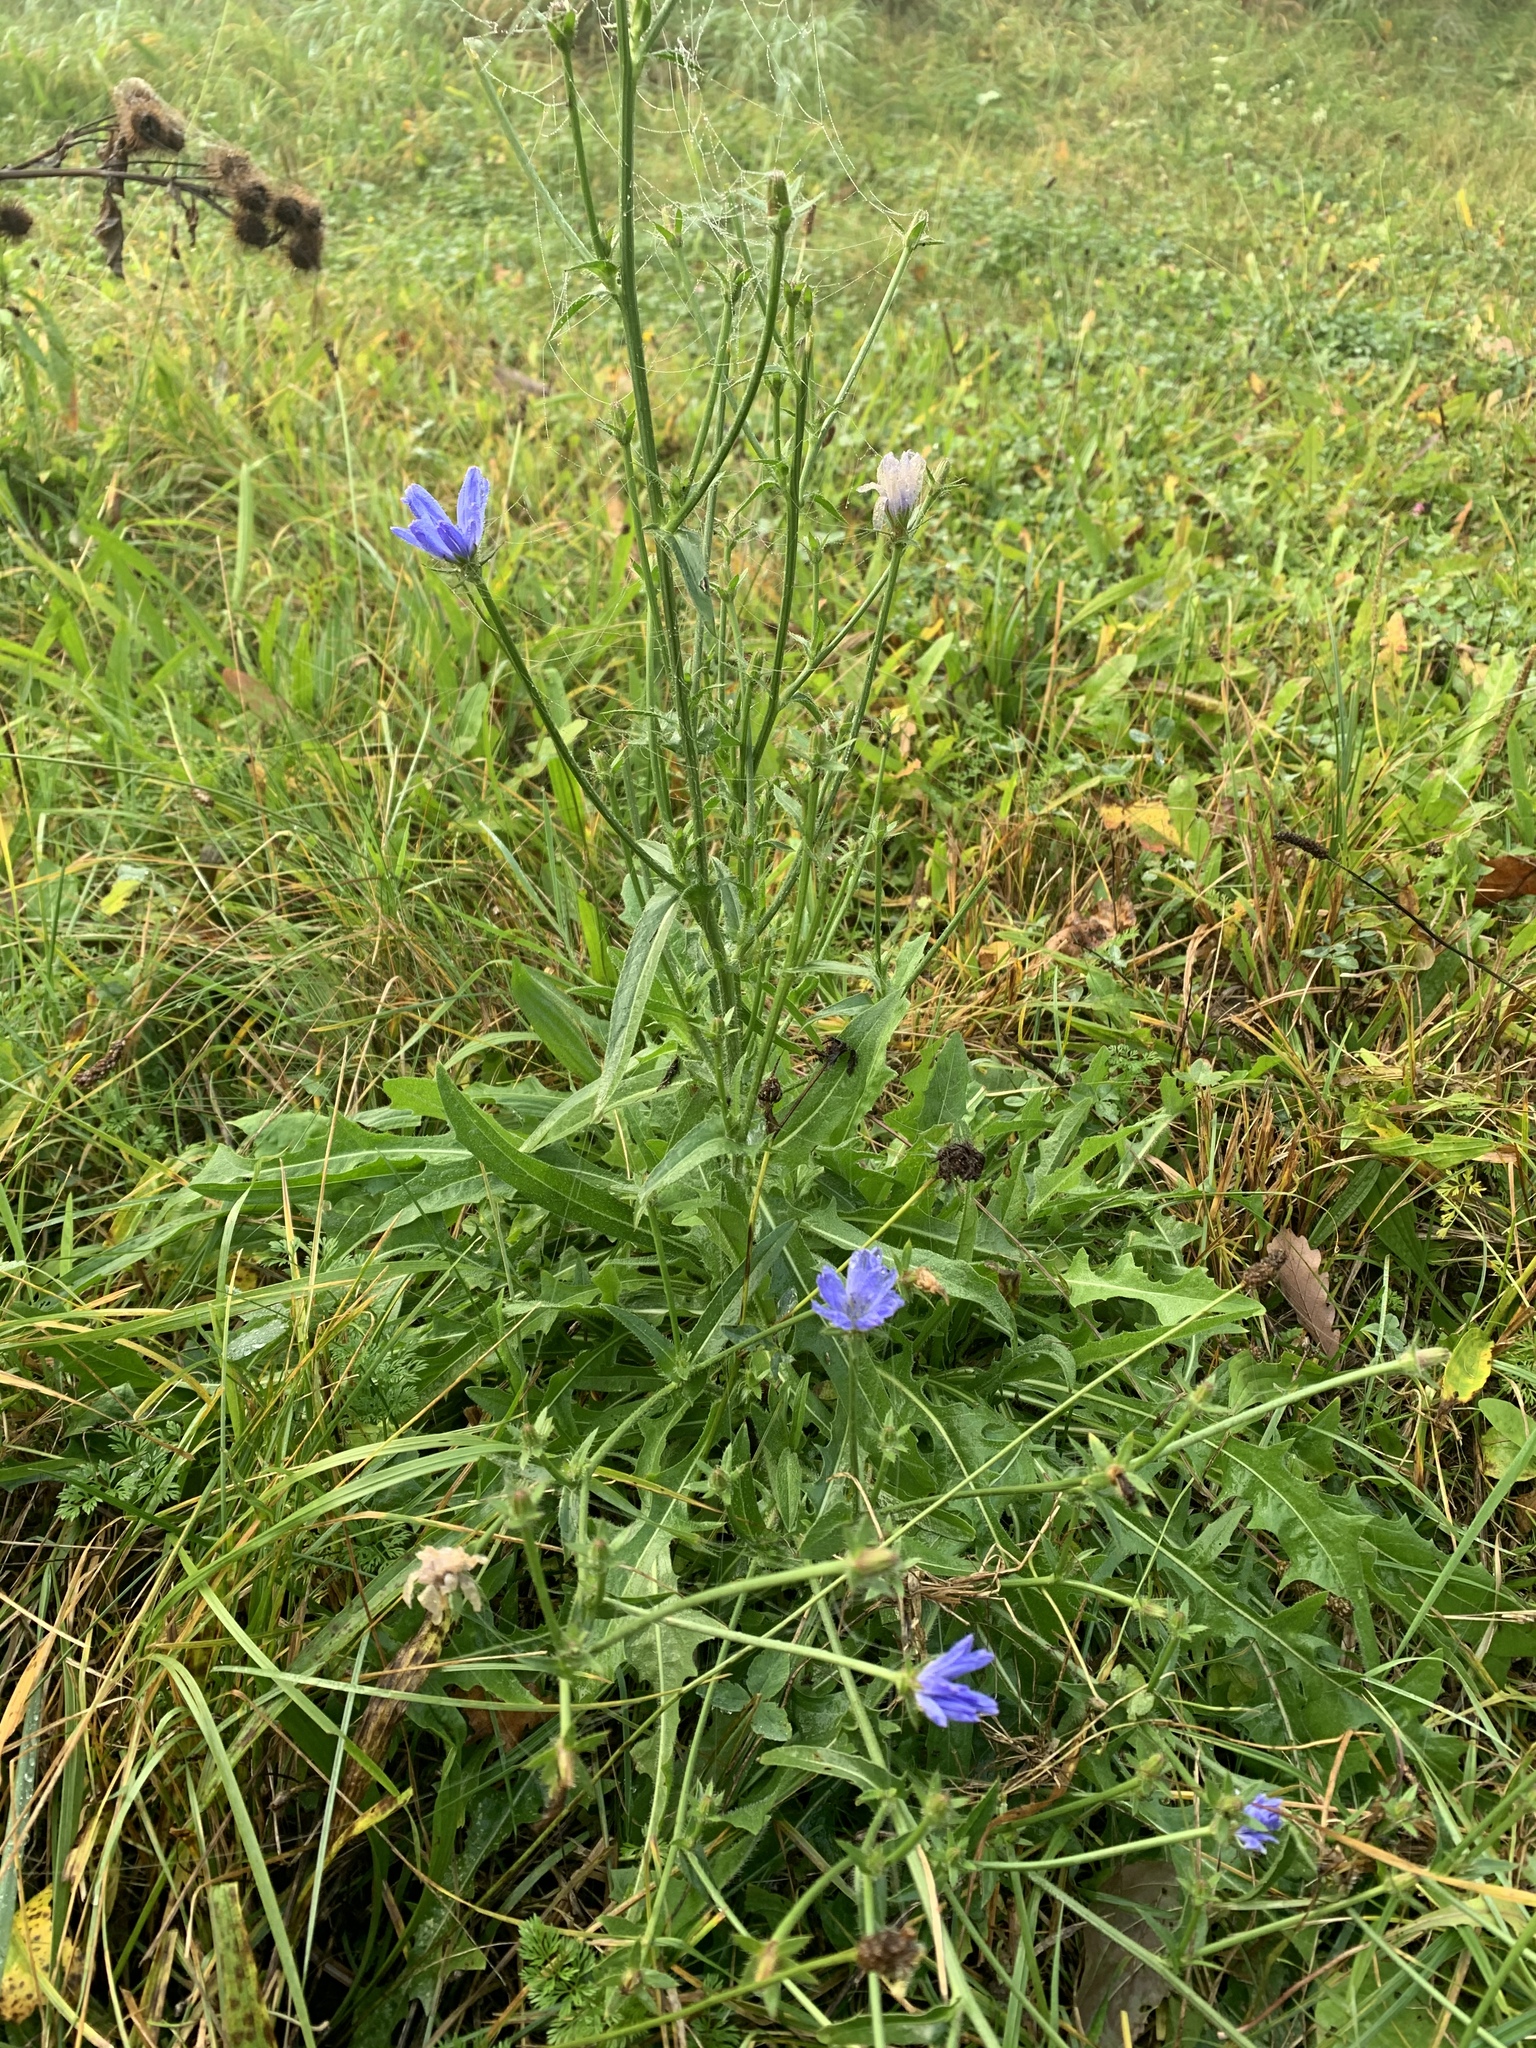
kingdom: Plantae
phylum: Tracheophyta
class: Magnoliopsida
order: Asterales
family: Asteraceae
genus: Cichorium
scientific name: Cichorium intybus
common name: Chicory
